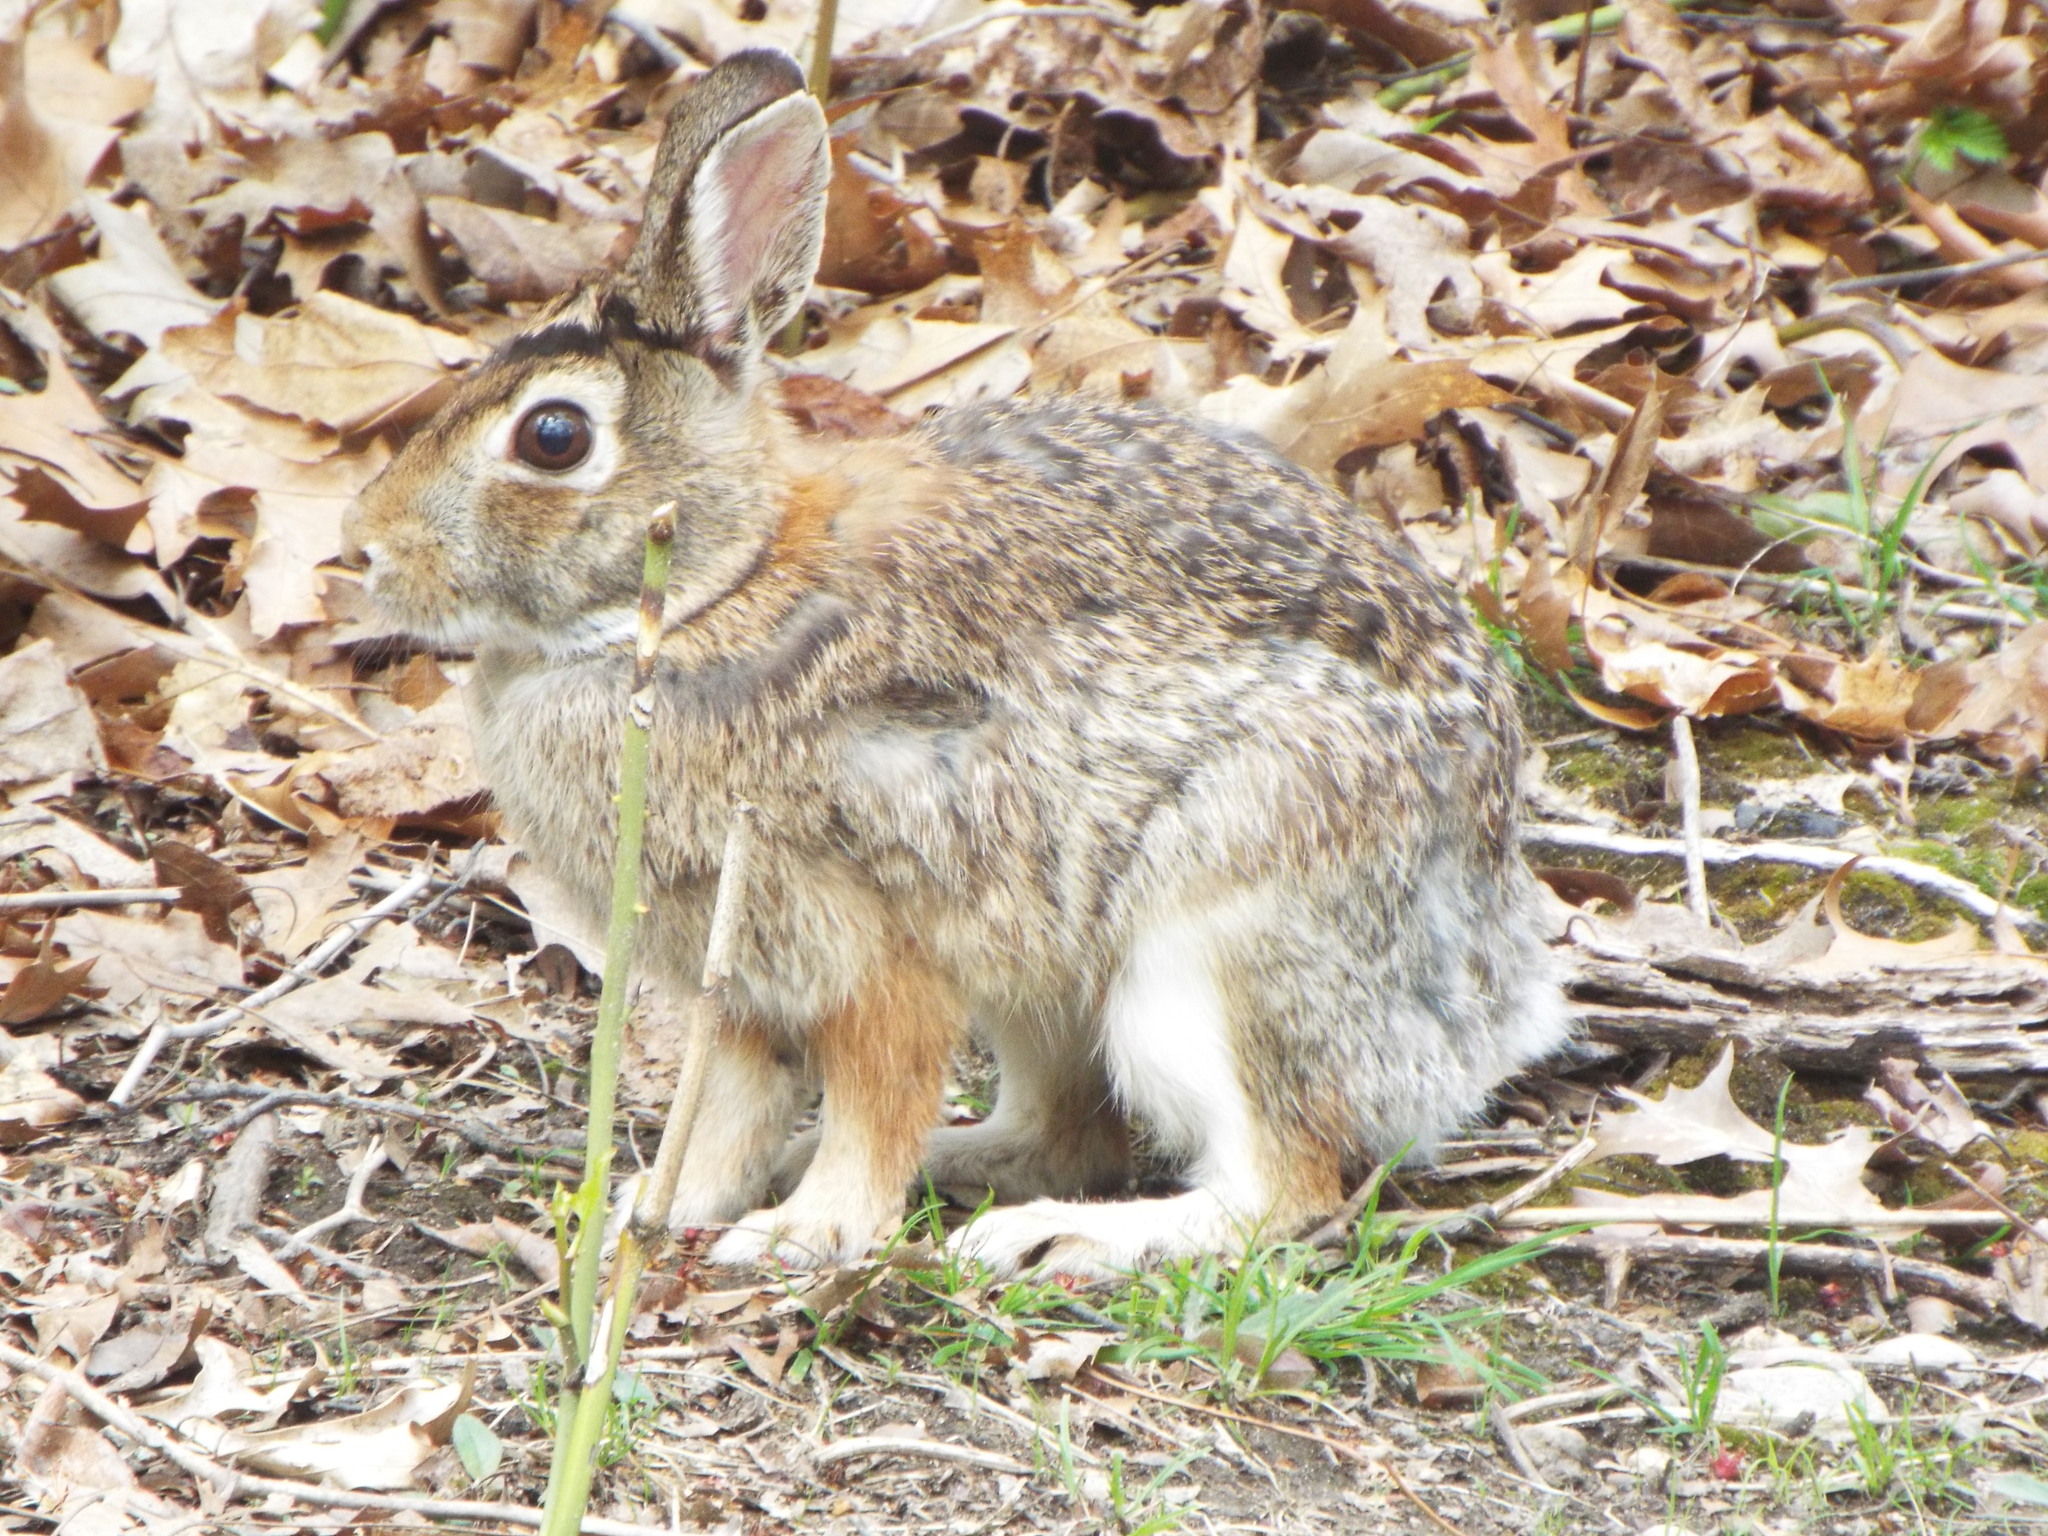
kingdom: Animalia
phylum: Chordata
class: Mammalia
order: Lagomorpha
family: Leporidae
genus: Sylvilagus
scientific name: Sylvilagus floridanus
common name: Eastern cottontail
